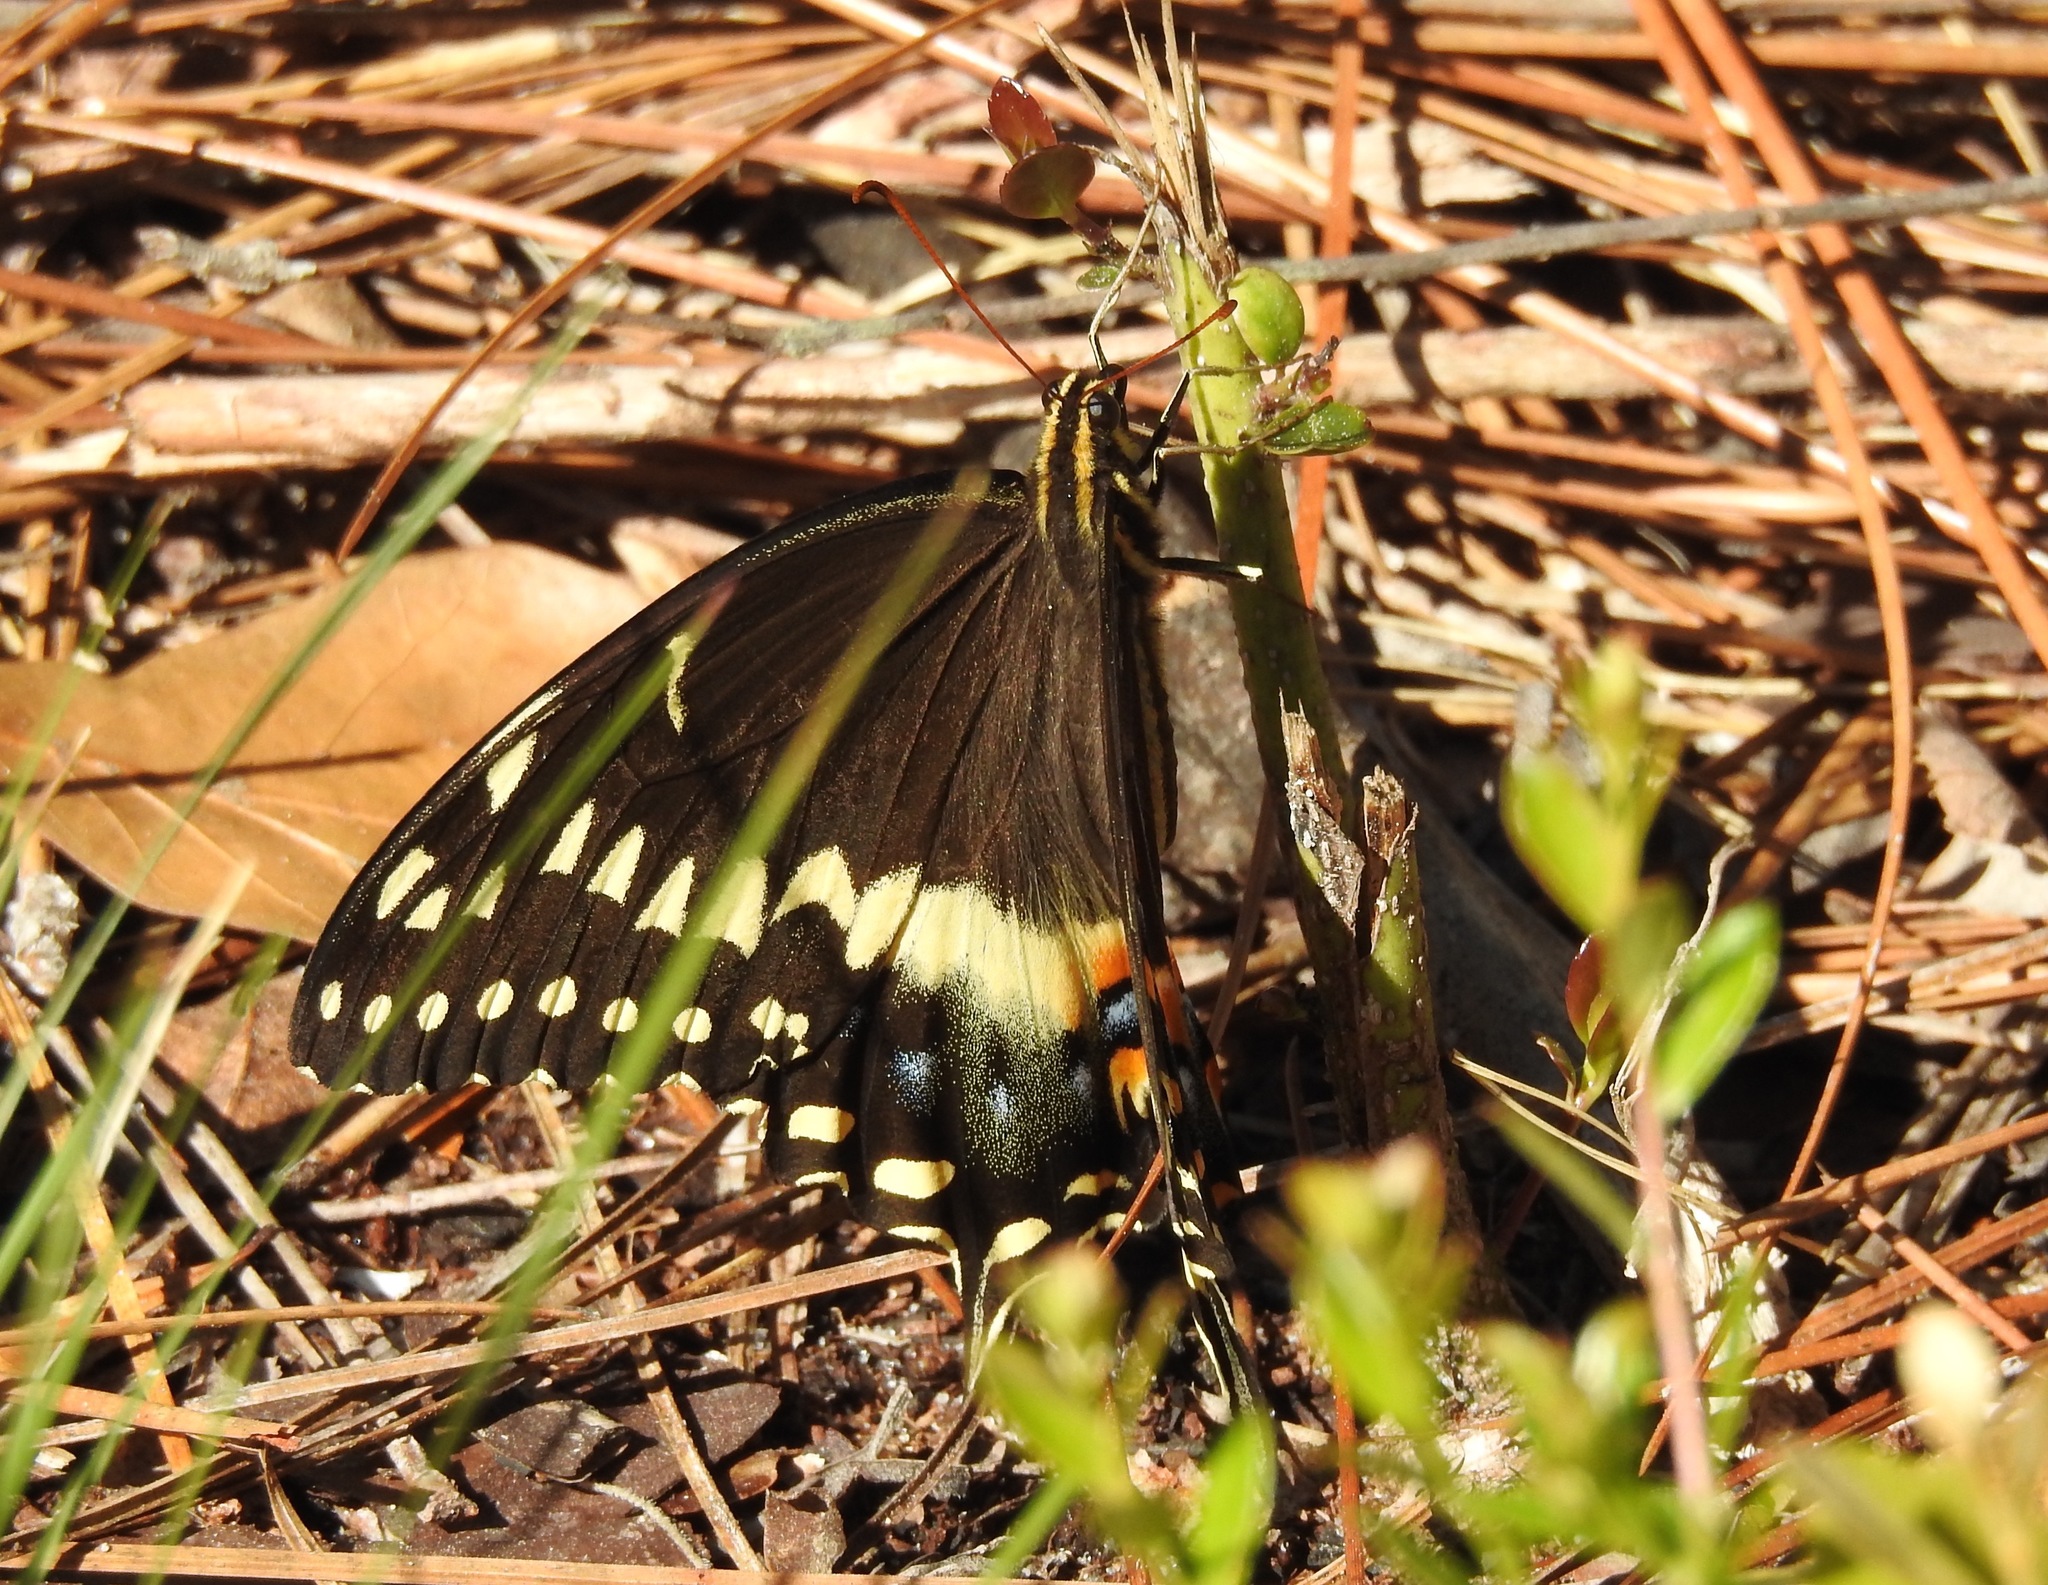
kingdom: Animalia
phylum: Arthropoda
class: Insecta
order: Lepidoptera
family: Papilionidae
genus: Papilio
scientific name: Papilio palamedes
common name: Palamedes swallowtail
